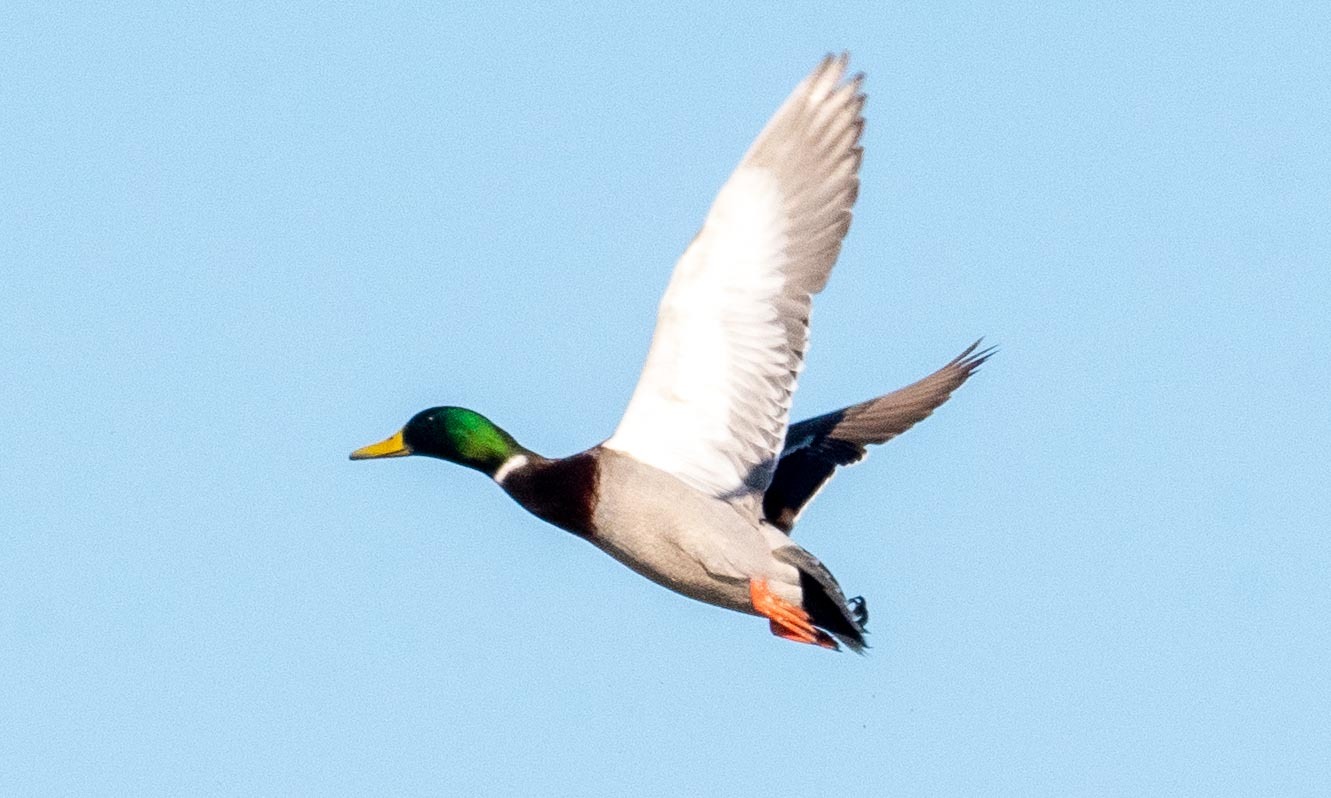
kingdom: Animalia
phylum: Chordata
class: Aves
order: Anseriformes
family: Anatidae
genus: Anas
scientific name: Anas platyrhynchos
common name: Mallard
